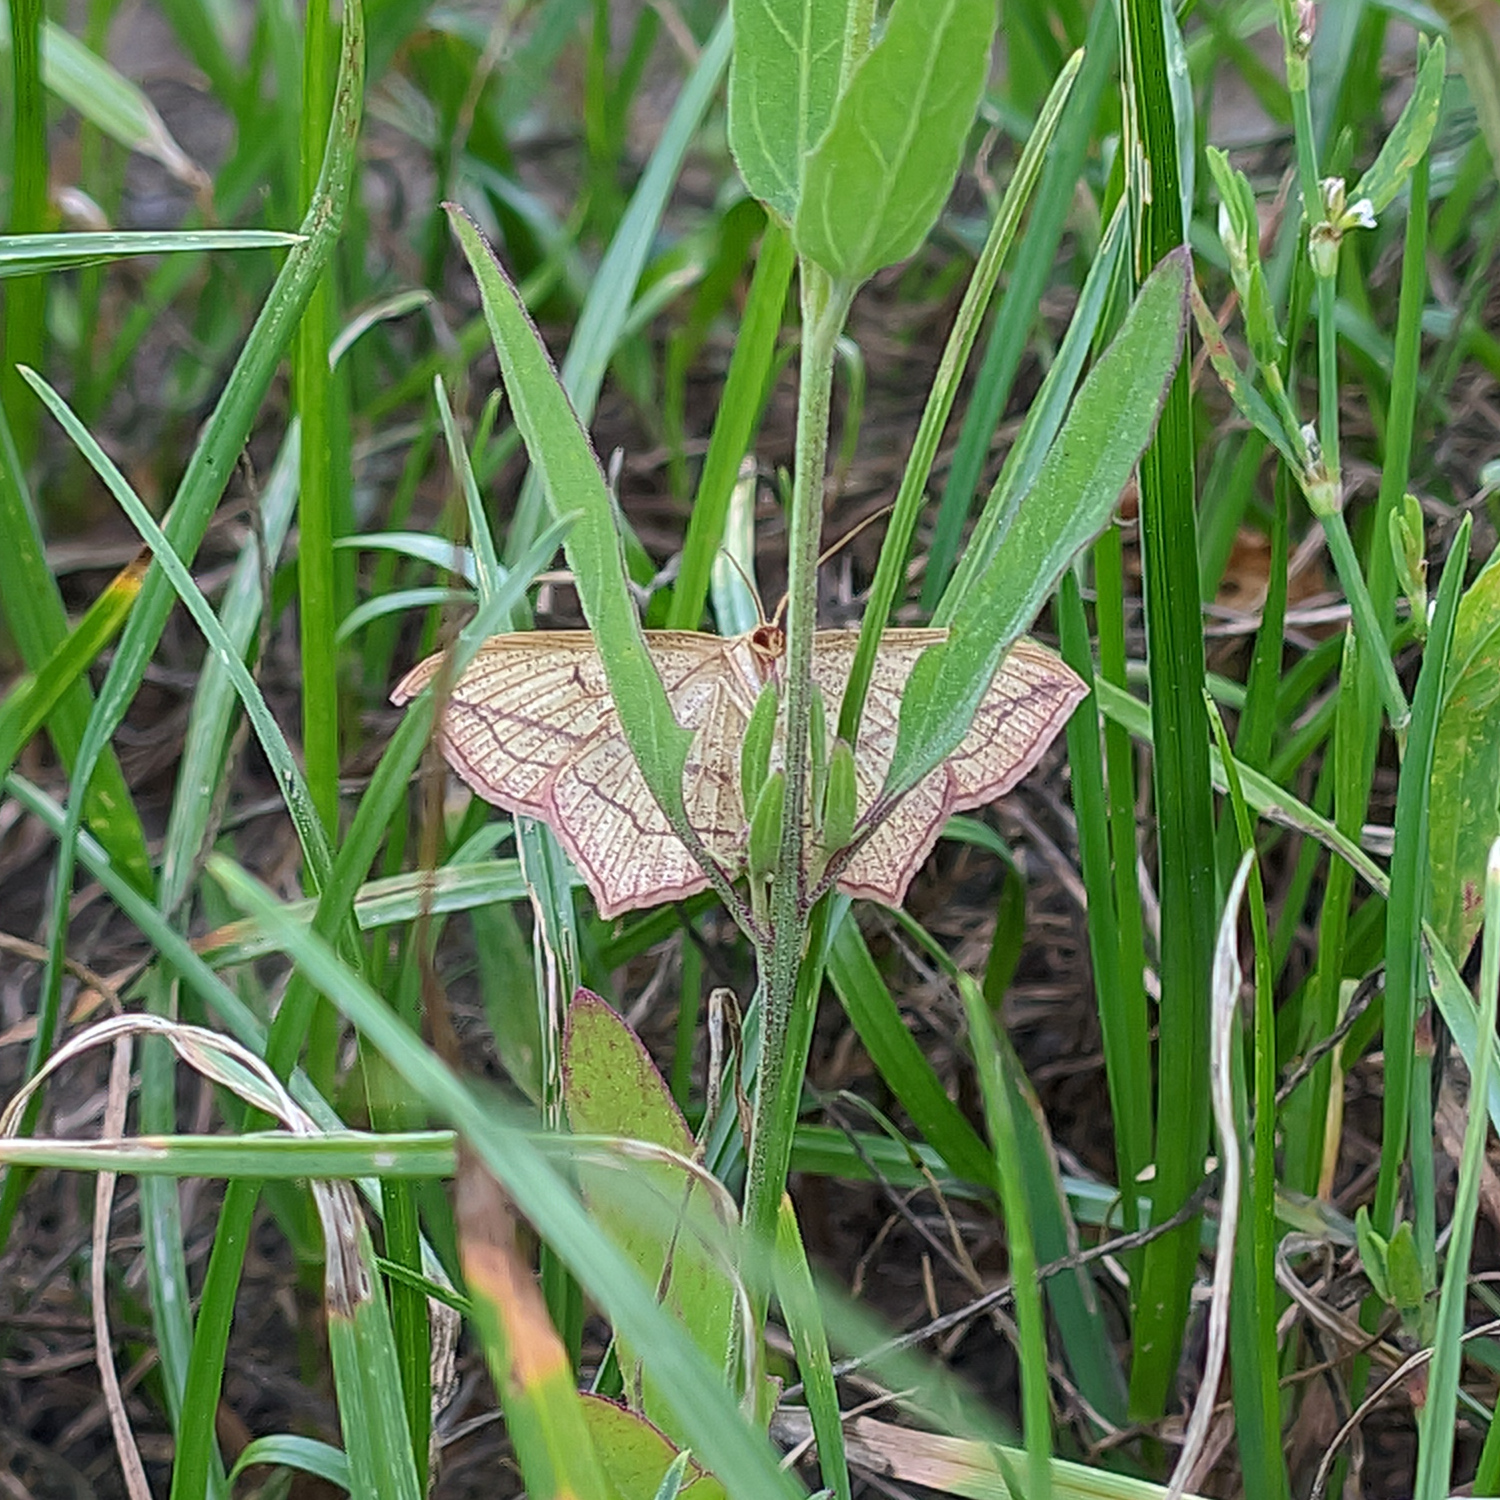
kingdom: Animalia
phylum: Arthropoda
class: Insecta
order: Lepidoptera
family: Geometridae
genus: Timandra
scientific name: Timandra comae
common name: Blood-vein
